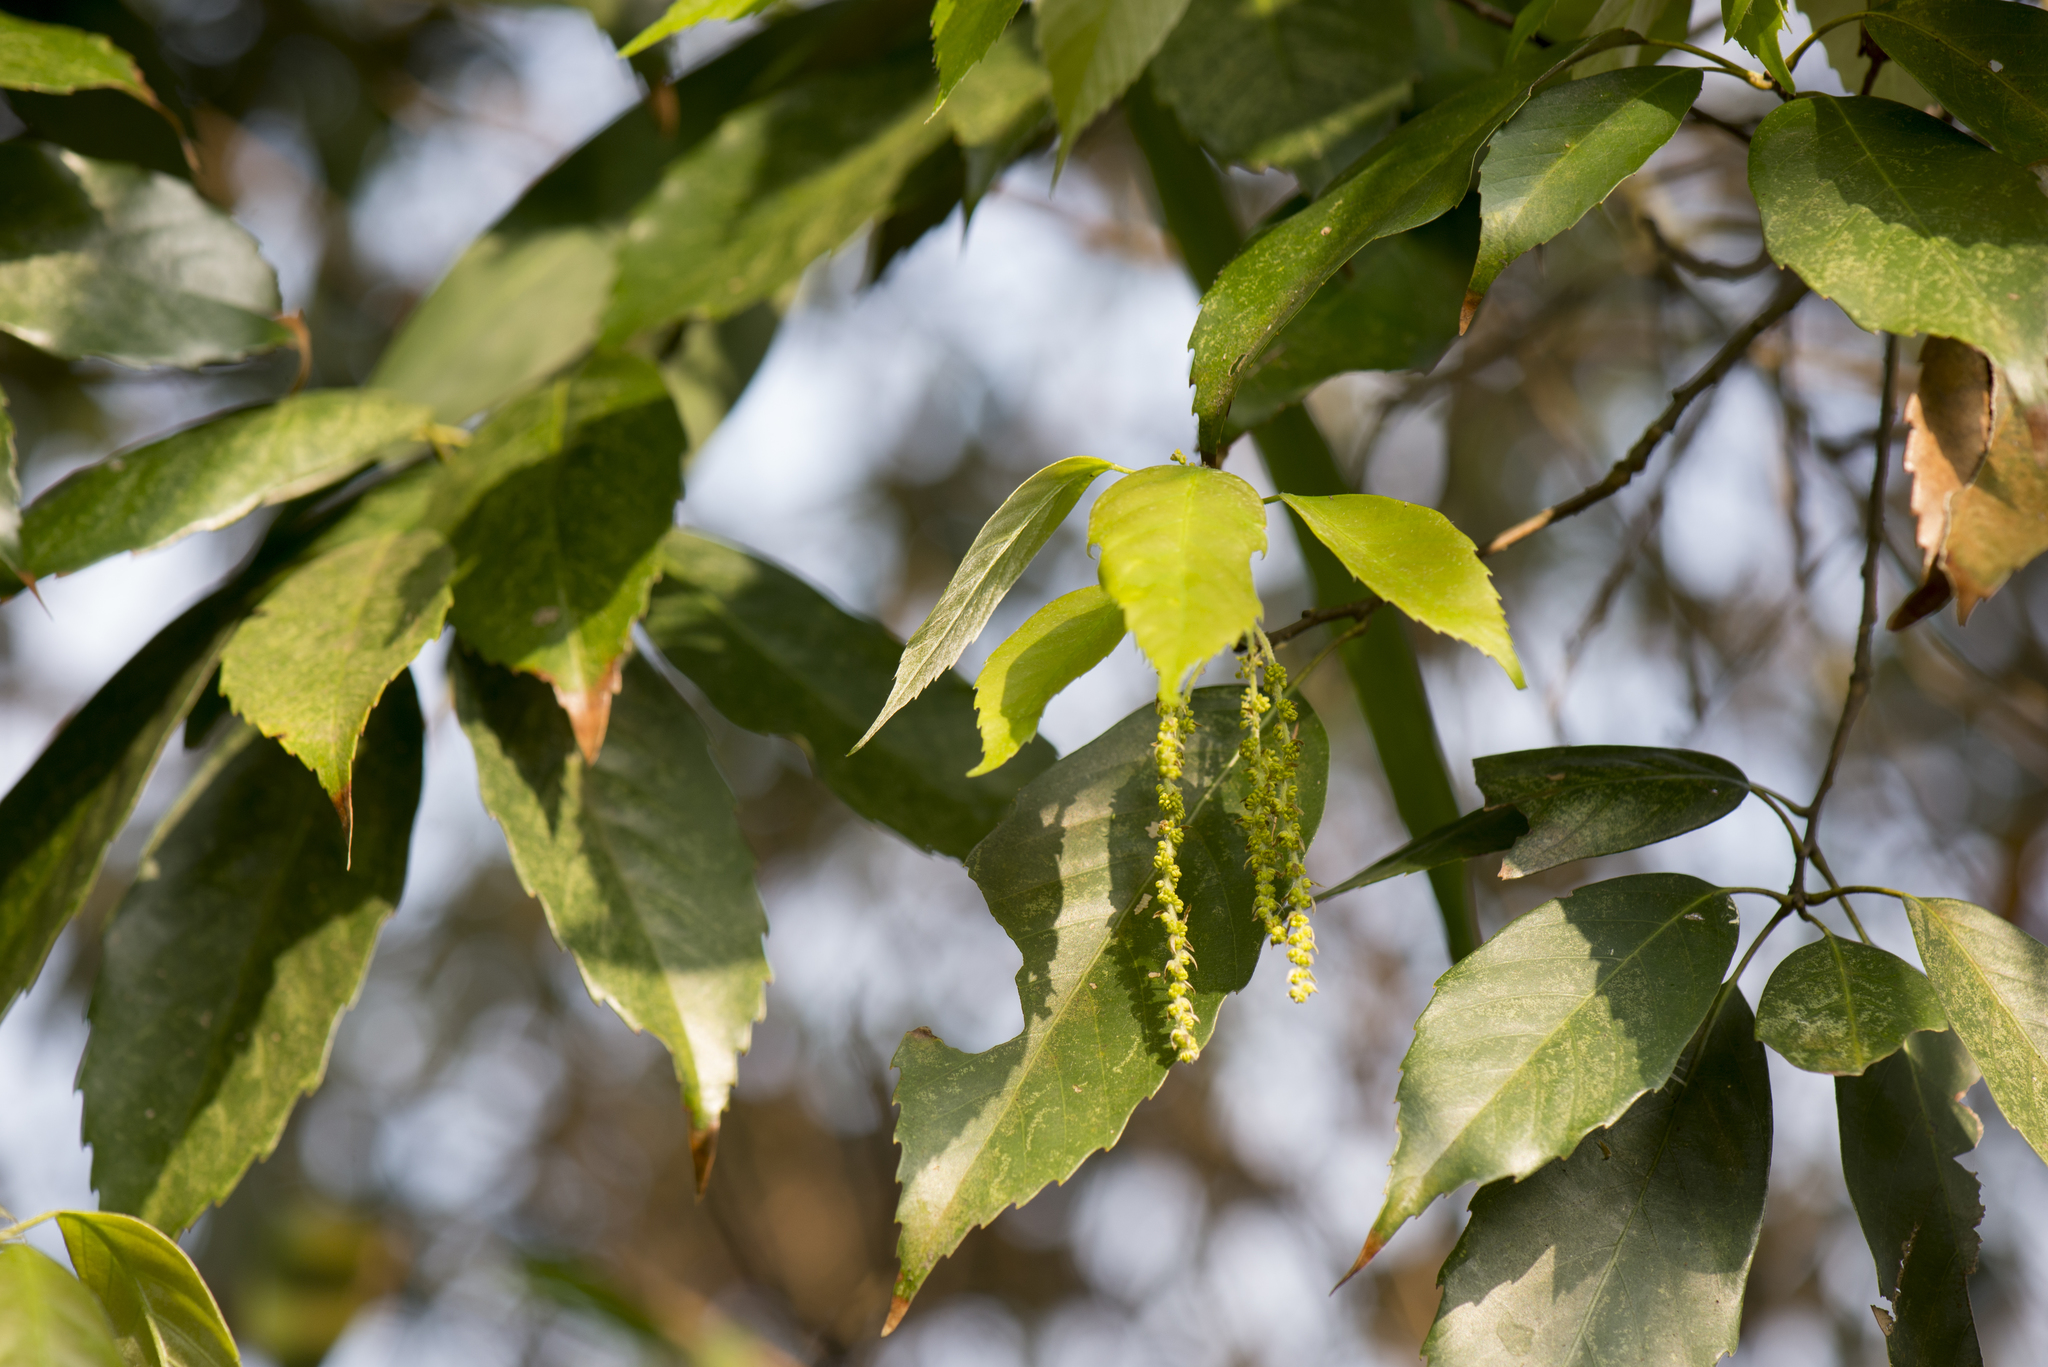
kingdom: Plantae
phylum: Tracheophyta
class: Magnoliopsida
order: Fagales
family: Fagaceae
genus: Quercus
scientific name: Quercus glauca
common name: Ring-cup oak
